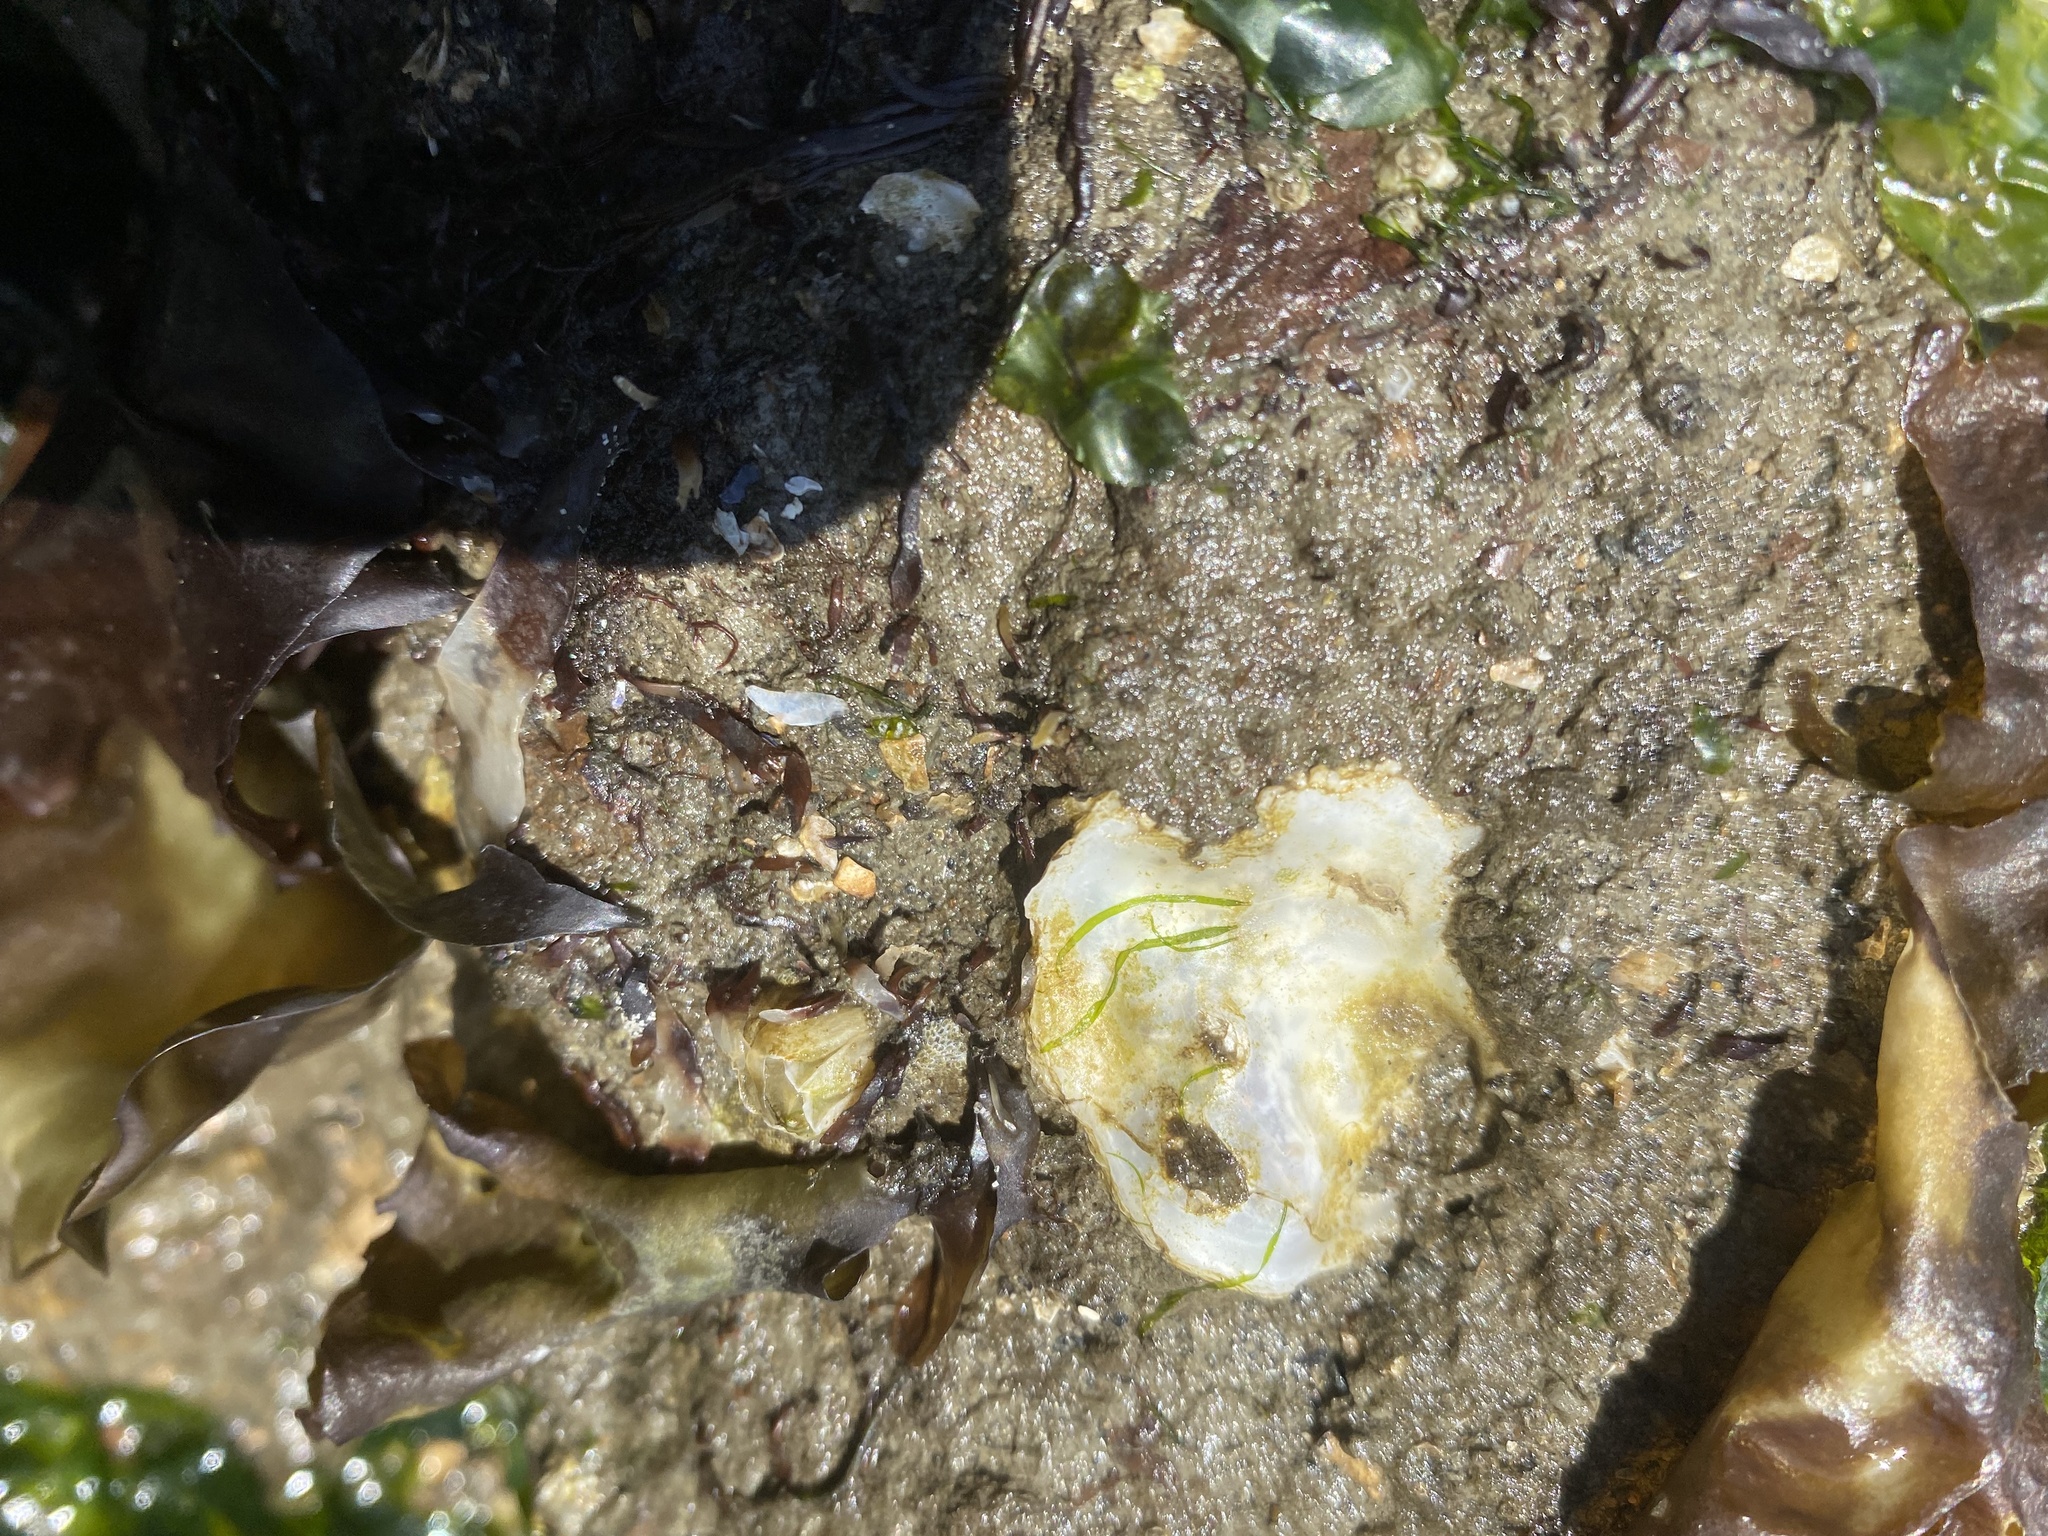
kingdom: Animalia
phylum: Mollusca
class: Bivalvia
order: Ostreida
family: Ostreidae
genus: Ostrea
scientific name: Ostrea lurida
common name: Olympia flat oyster
